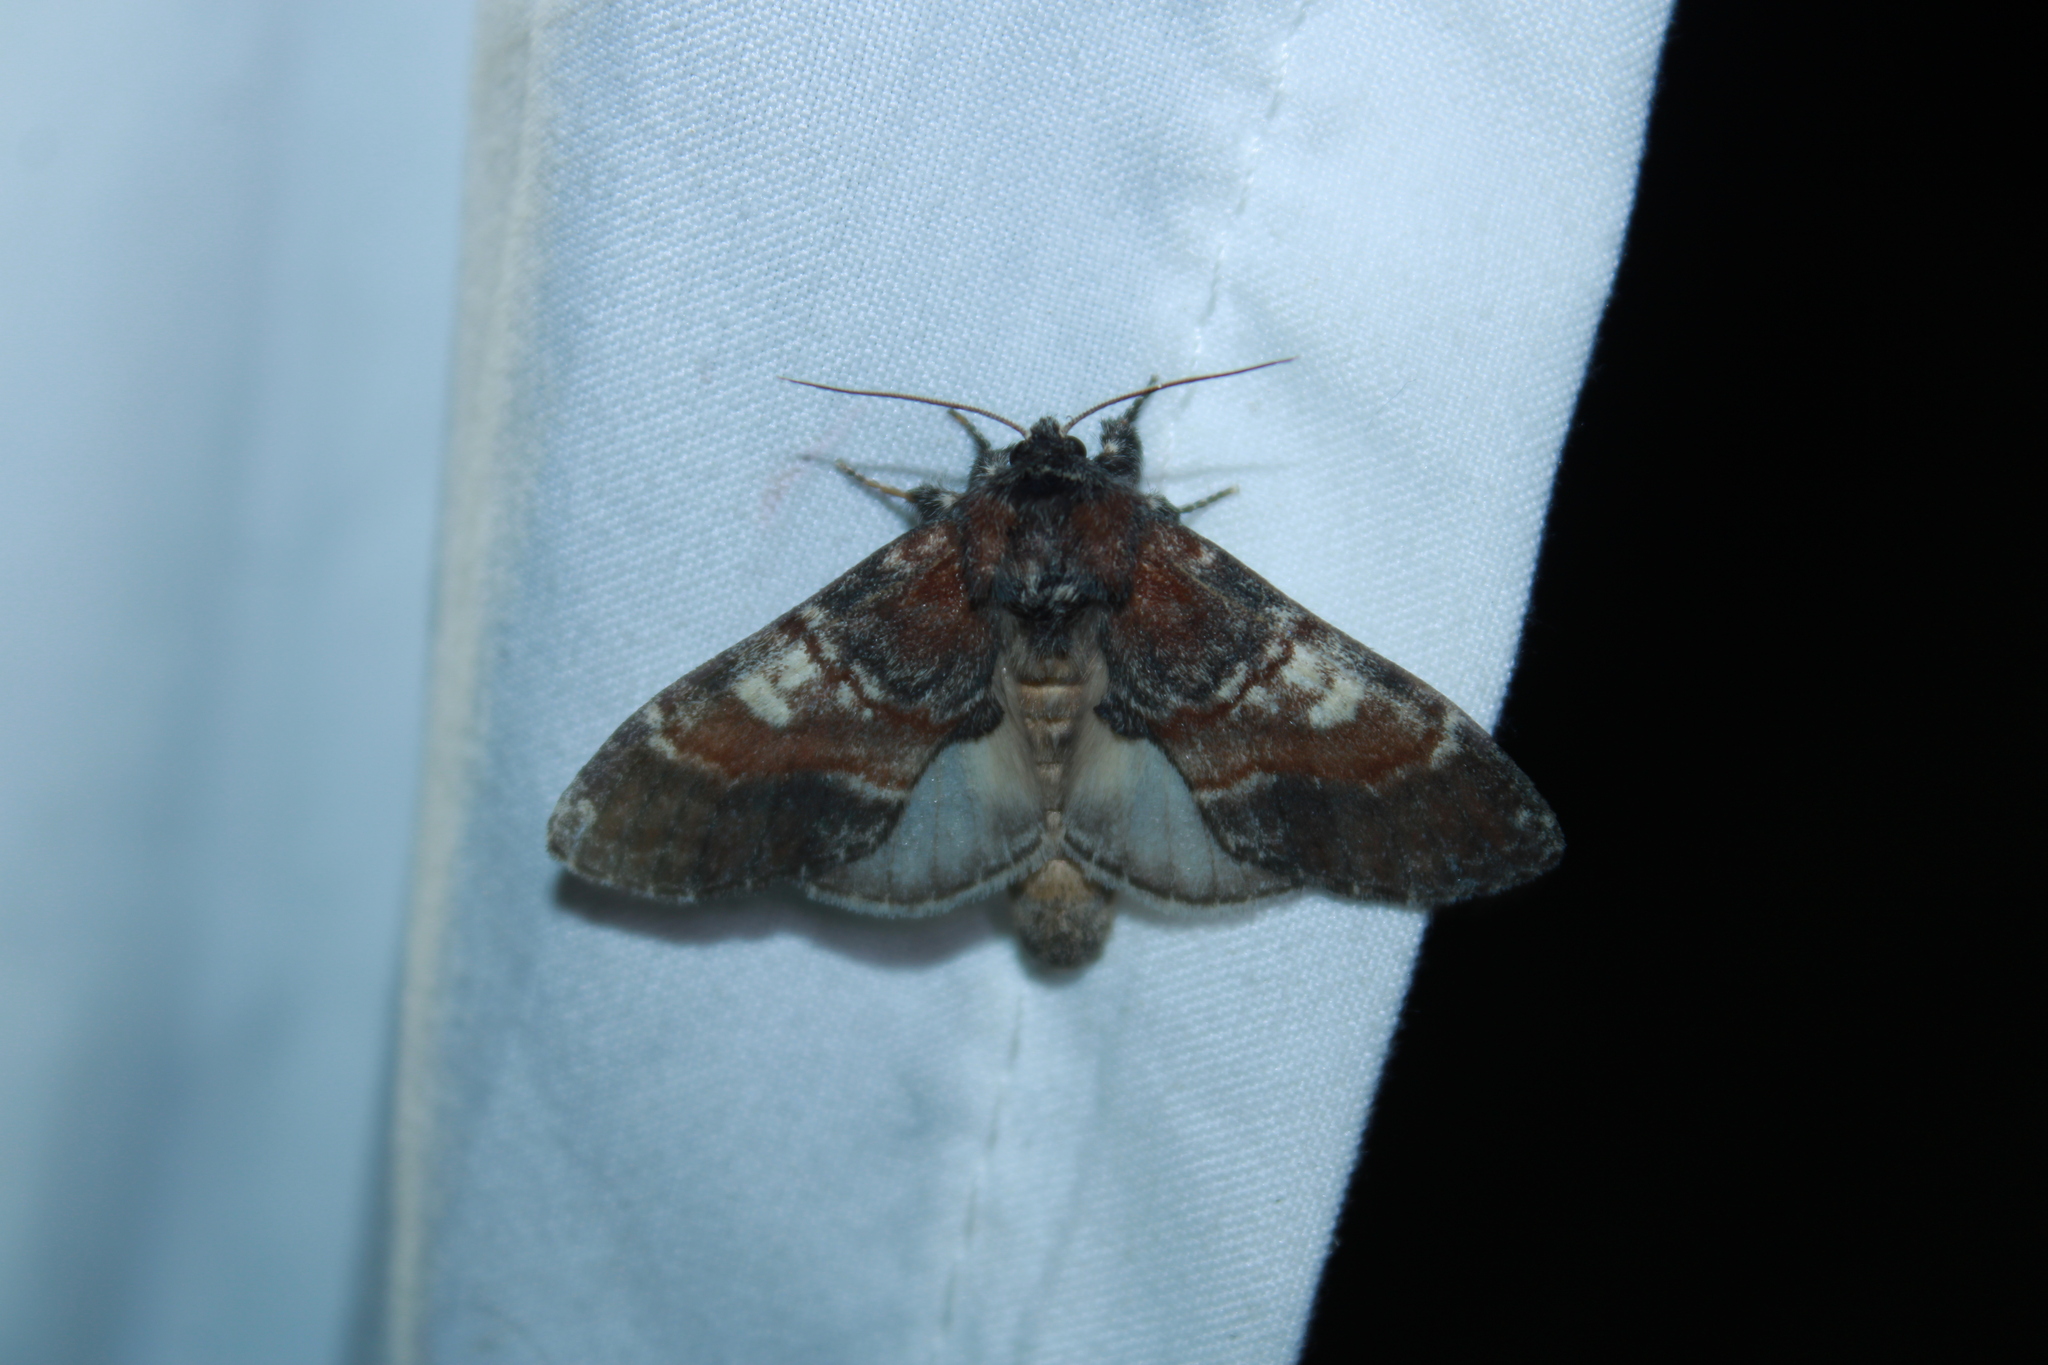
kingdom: Animalia
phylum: Arthropoda
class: Insecta
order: Lepidoptera
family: Notodontidae
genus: Peridea
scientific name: Peridea ferruginea
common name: Chocolate prominent
